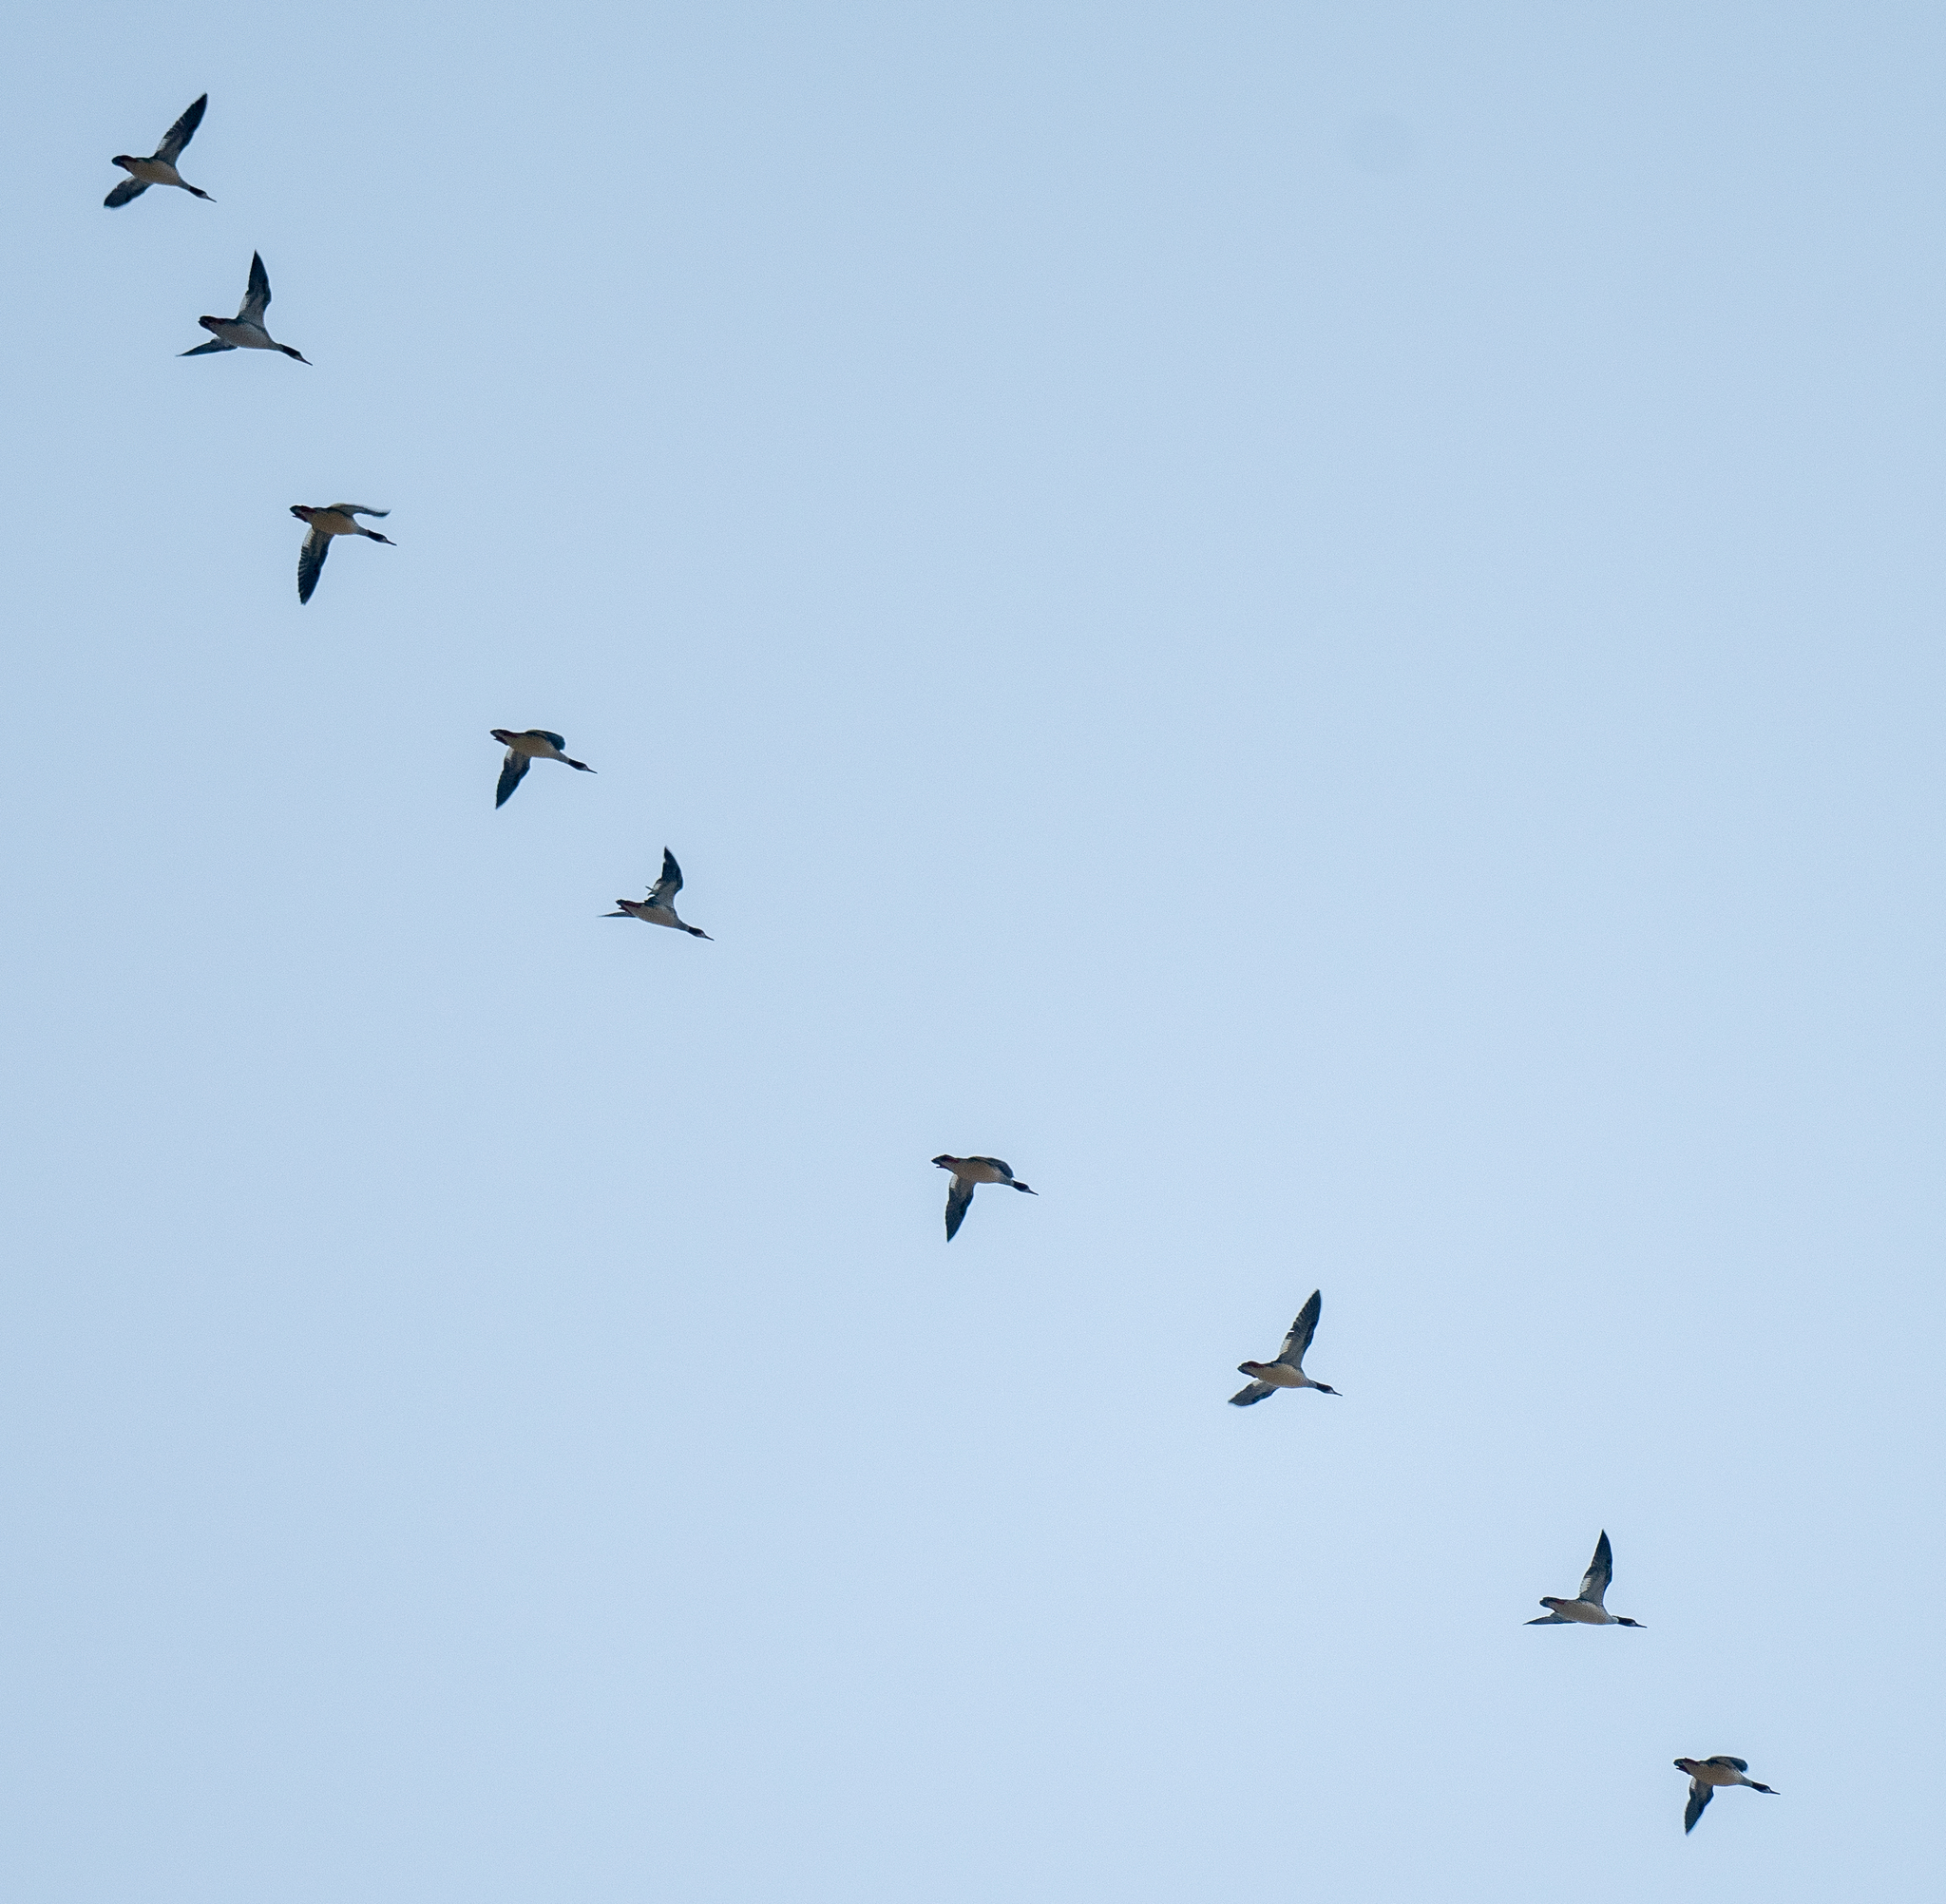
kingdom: Animalia
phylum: Chordata
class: Aves
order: Anseriformes
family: Anatidae
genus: Mergus
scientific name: Mergus merganser
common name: Common merganser
